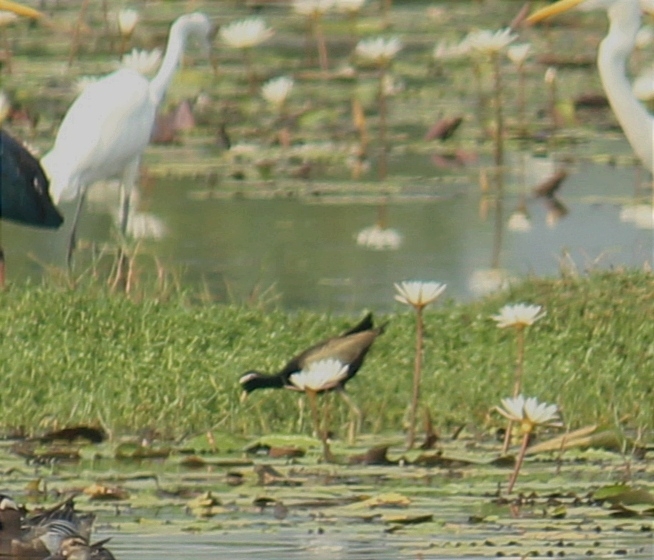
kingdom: Animalia
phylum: Chordata
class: Aves
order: Charadriiformes
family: Jacanidae
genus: Metopidius
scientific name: Metopidius indicus
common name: Bronze-winged jacana
